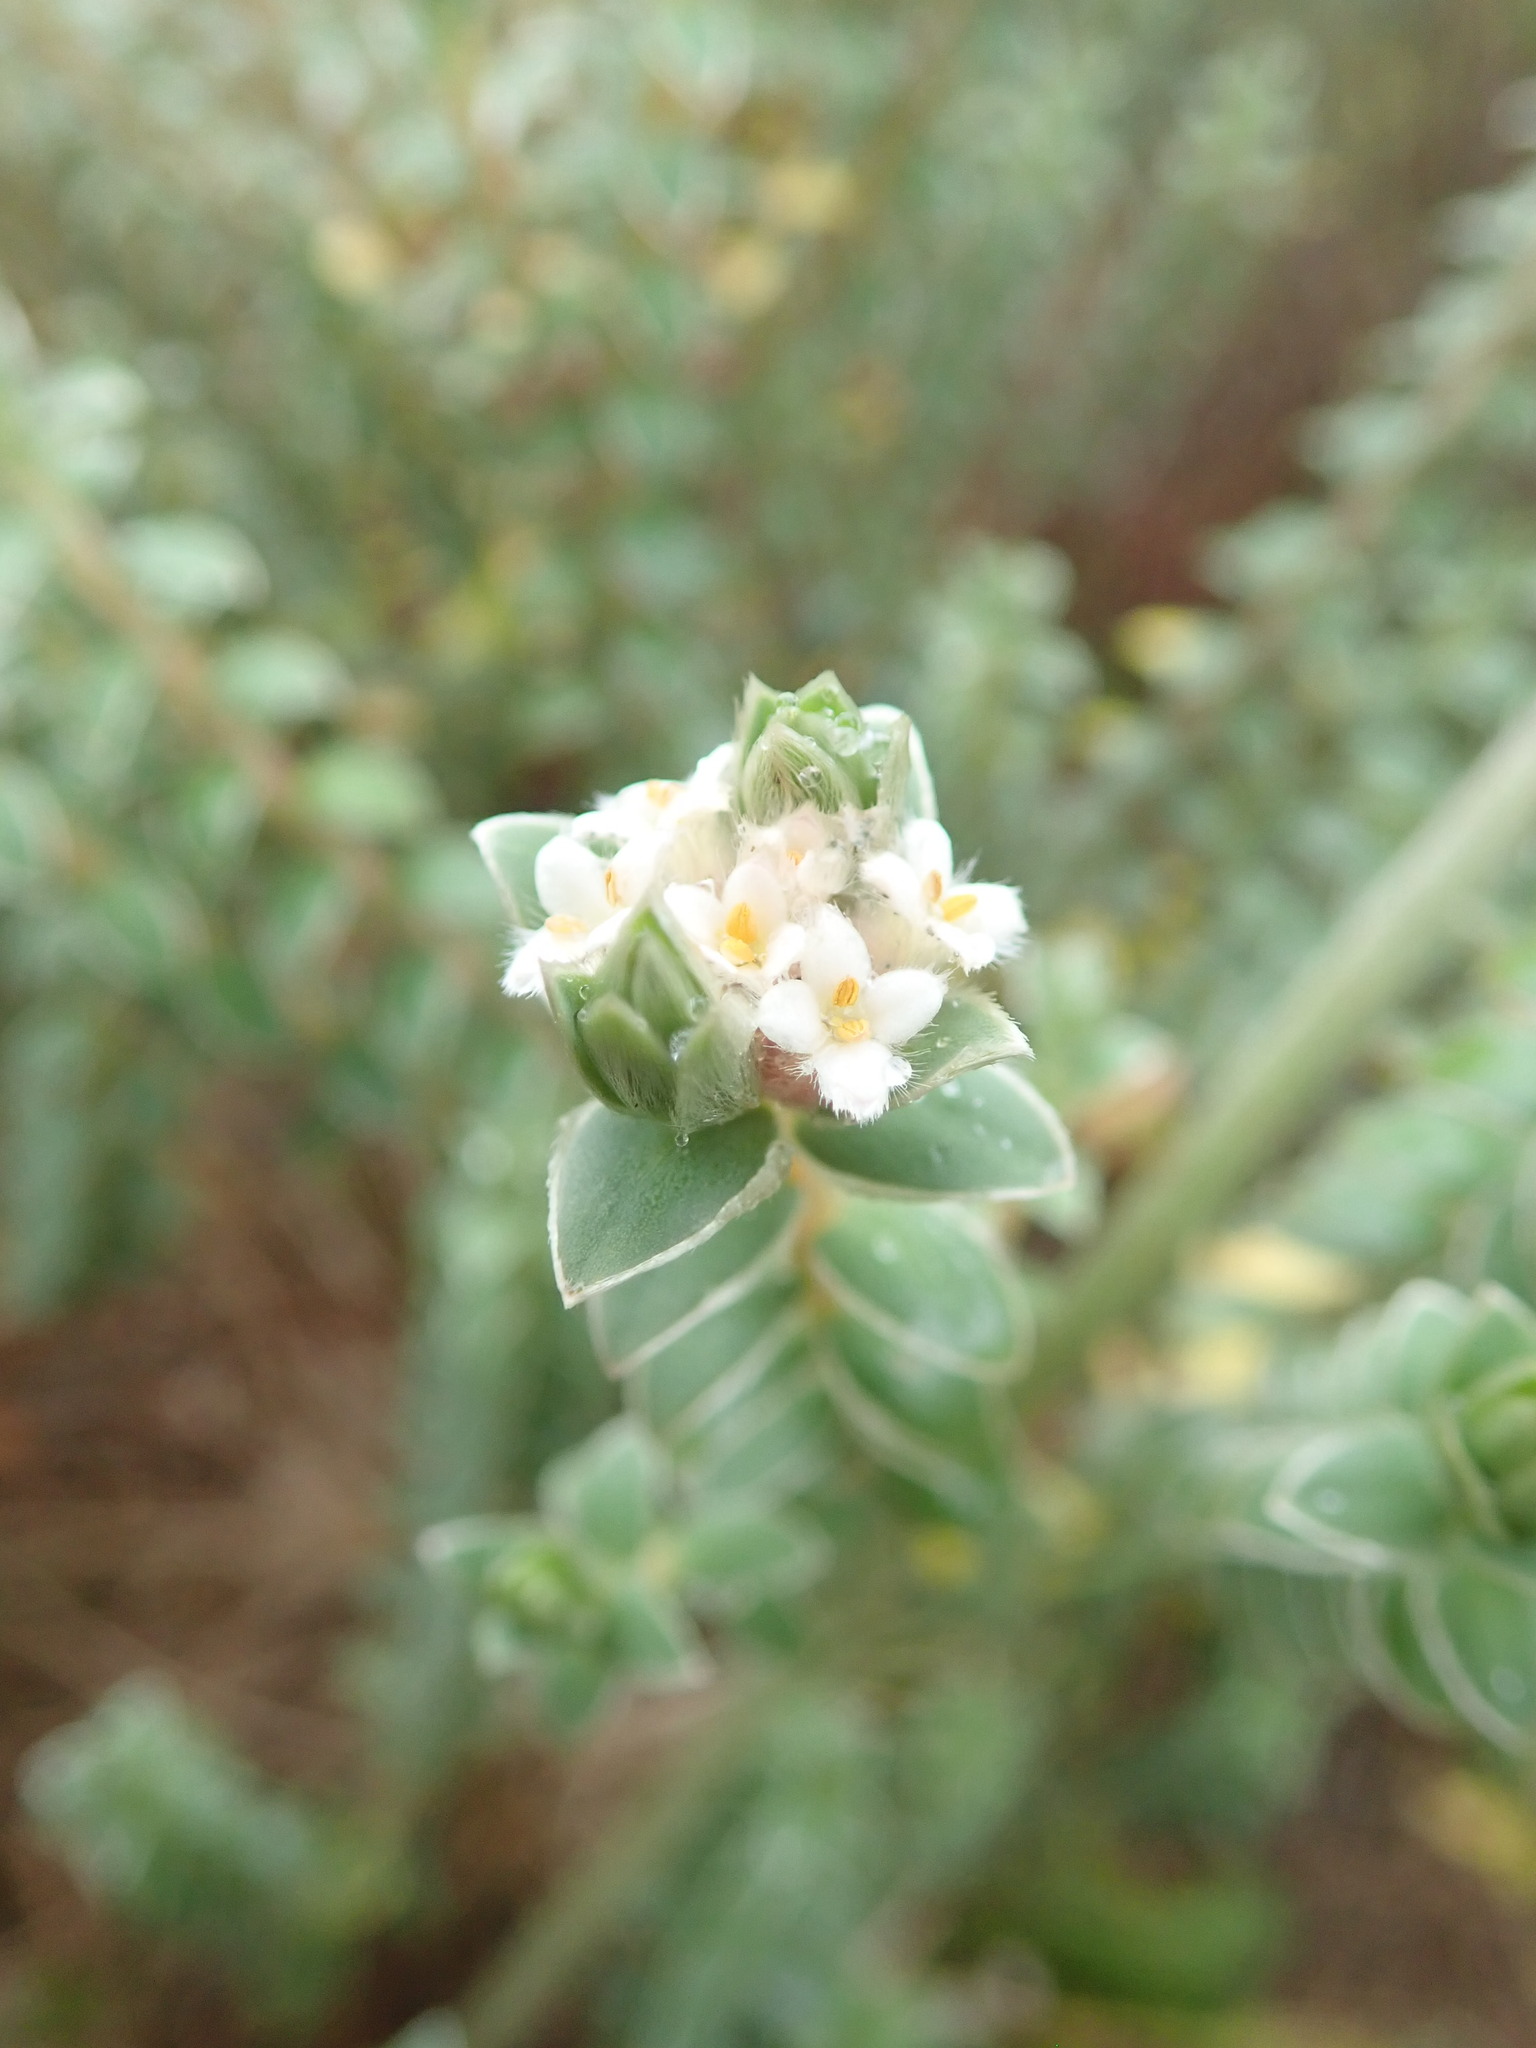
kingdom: Plantae
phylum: Tracheophyta
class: Magnoliopsida
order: Malvales
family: Thymelaeaceae
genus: Pimelea
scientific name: Pimelea villosa
